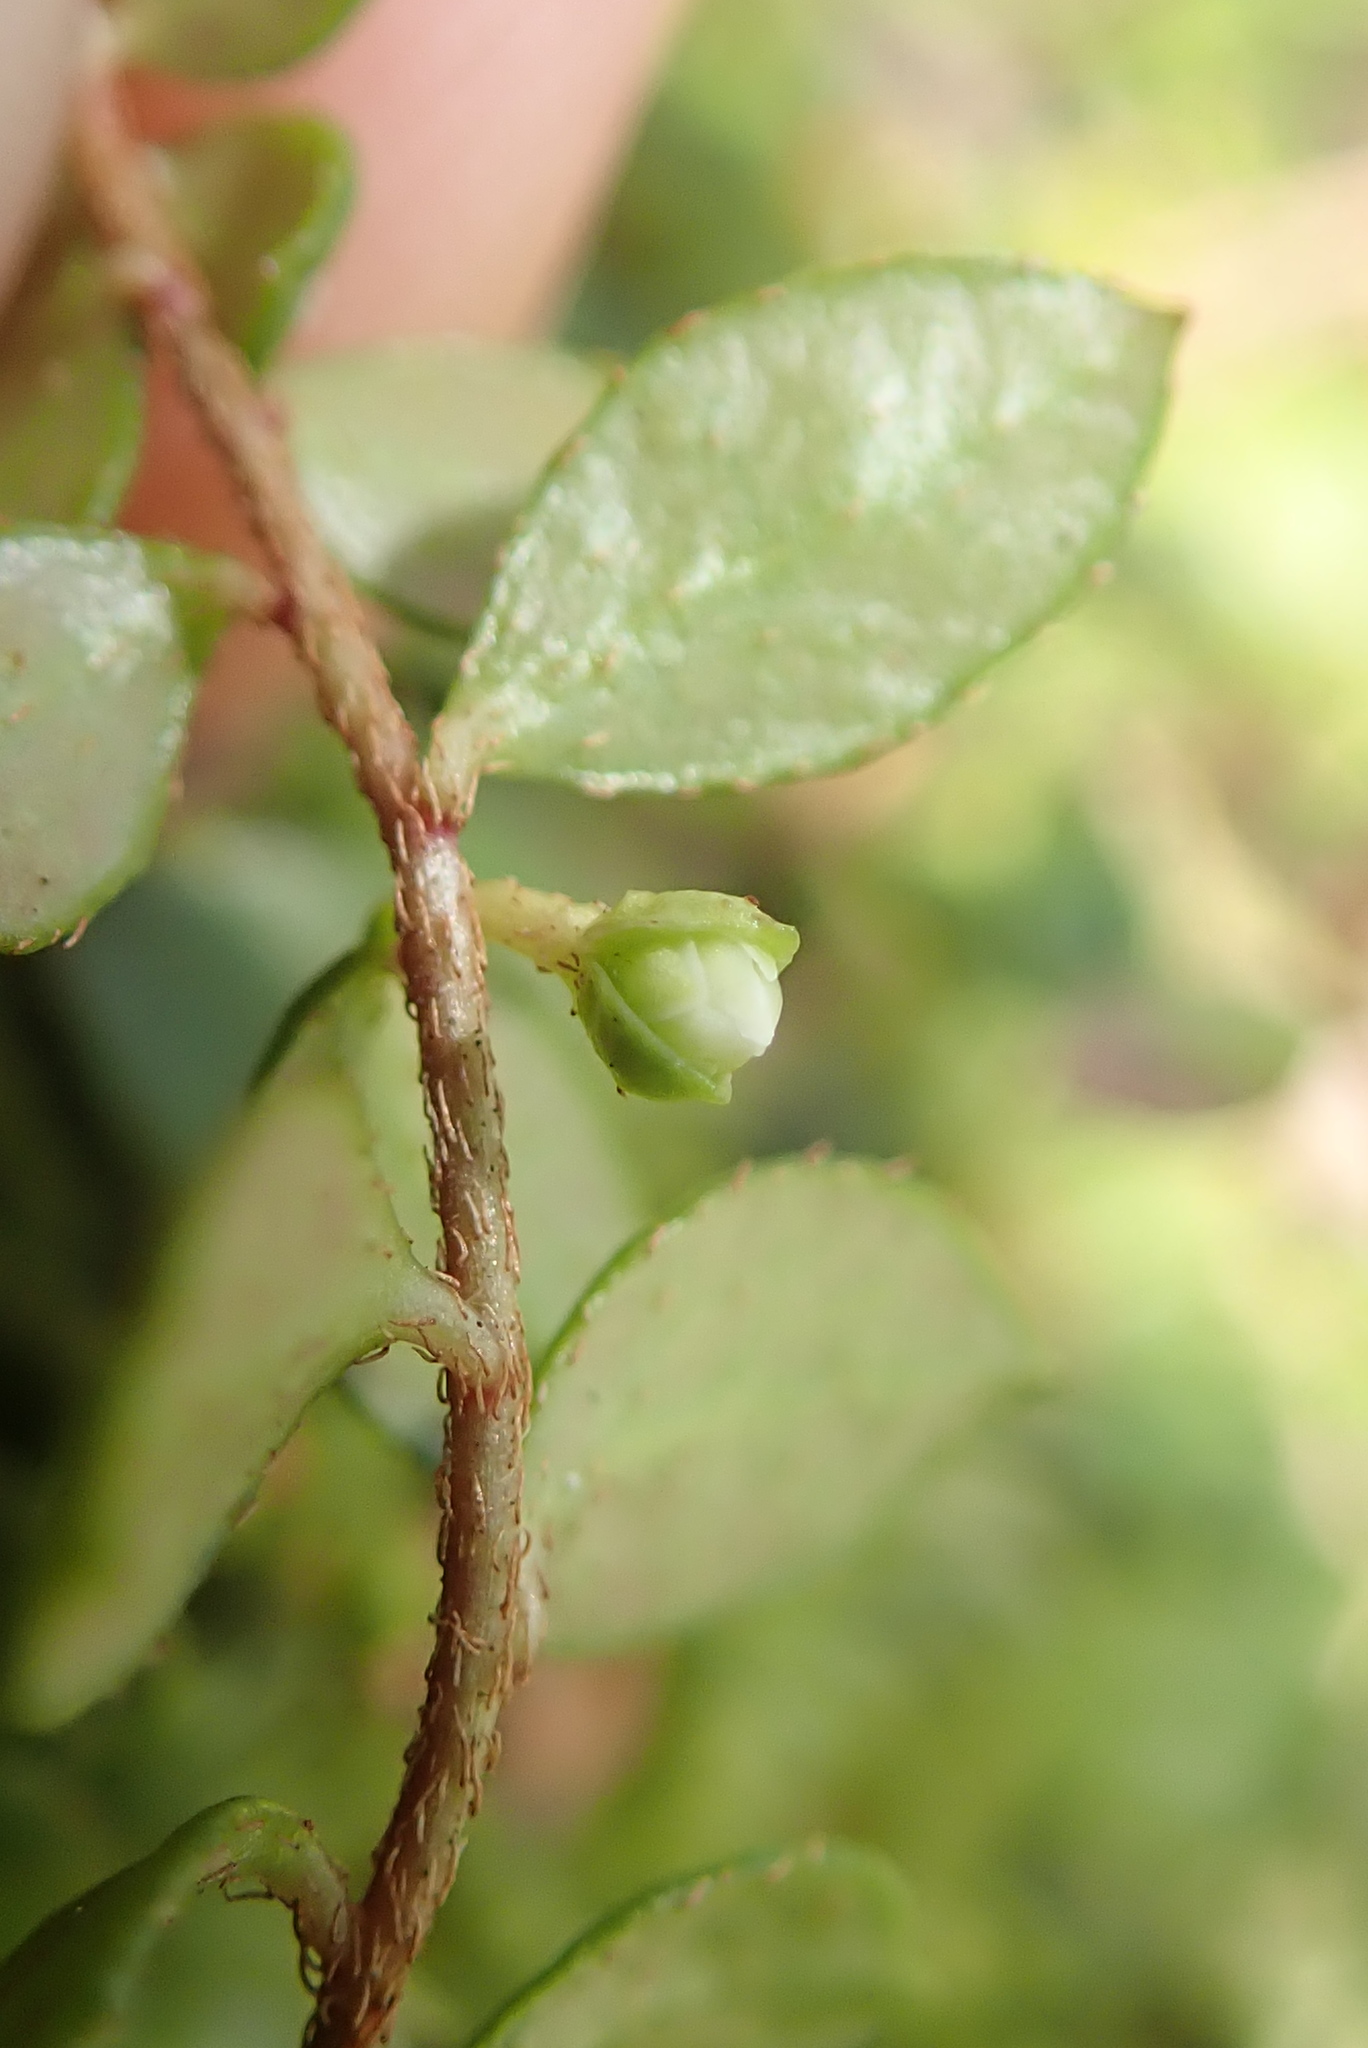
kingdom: Plantae
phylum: Tracheophyta
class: Magnoliopsida
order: Ericales
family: Ericaceae
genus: Gaultheria
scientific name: Gaultheria hispidula
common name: Cancer wintergreen
